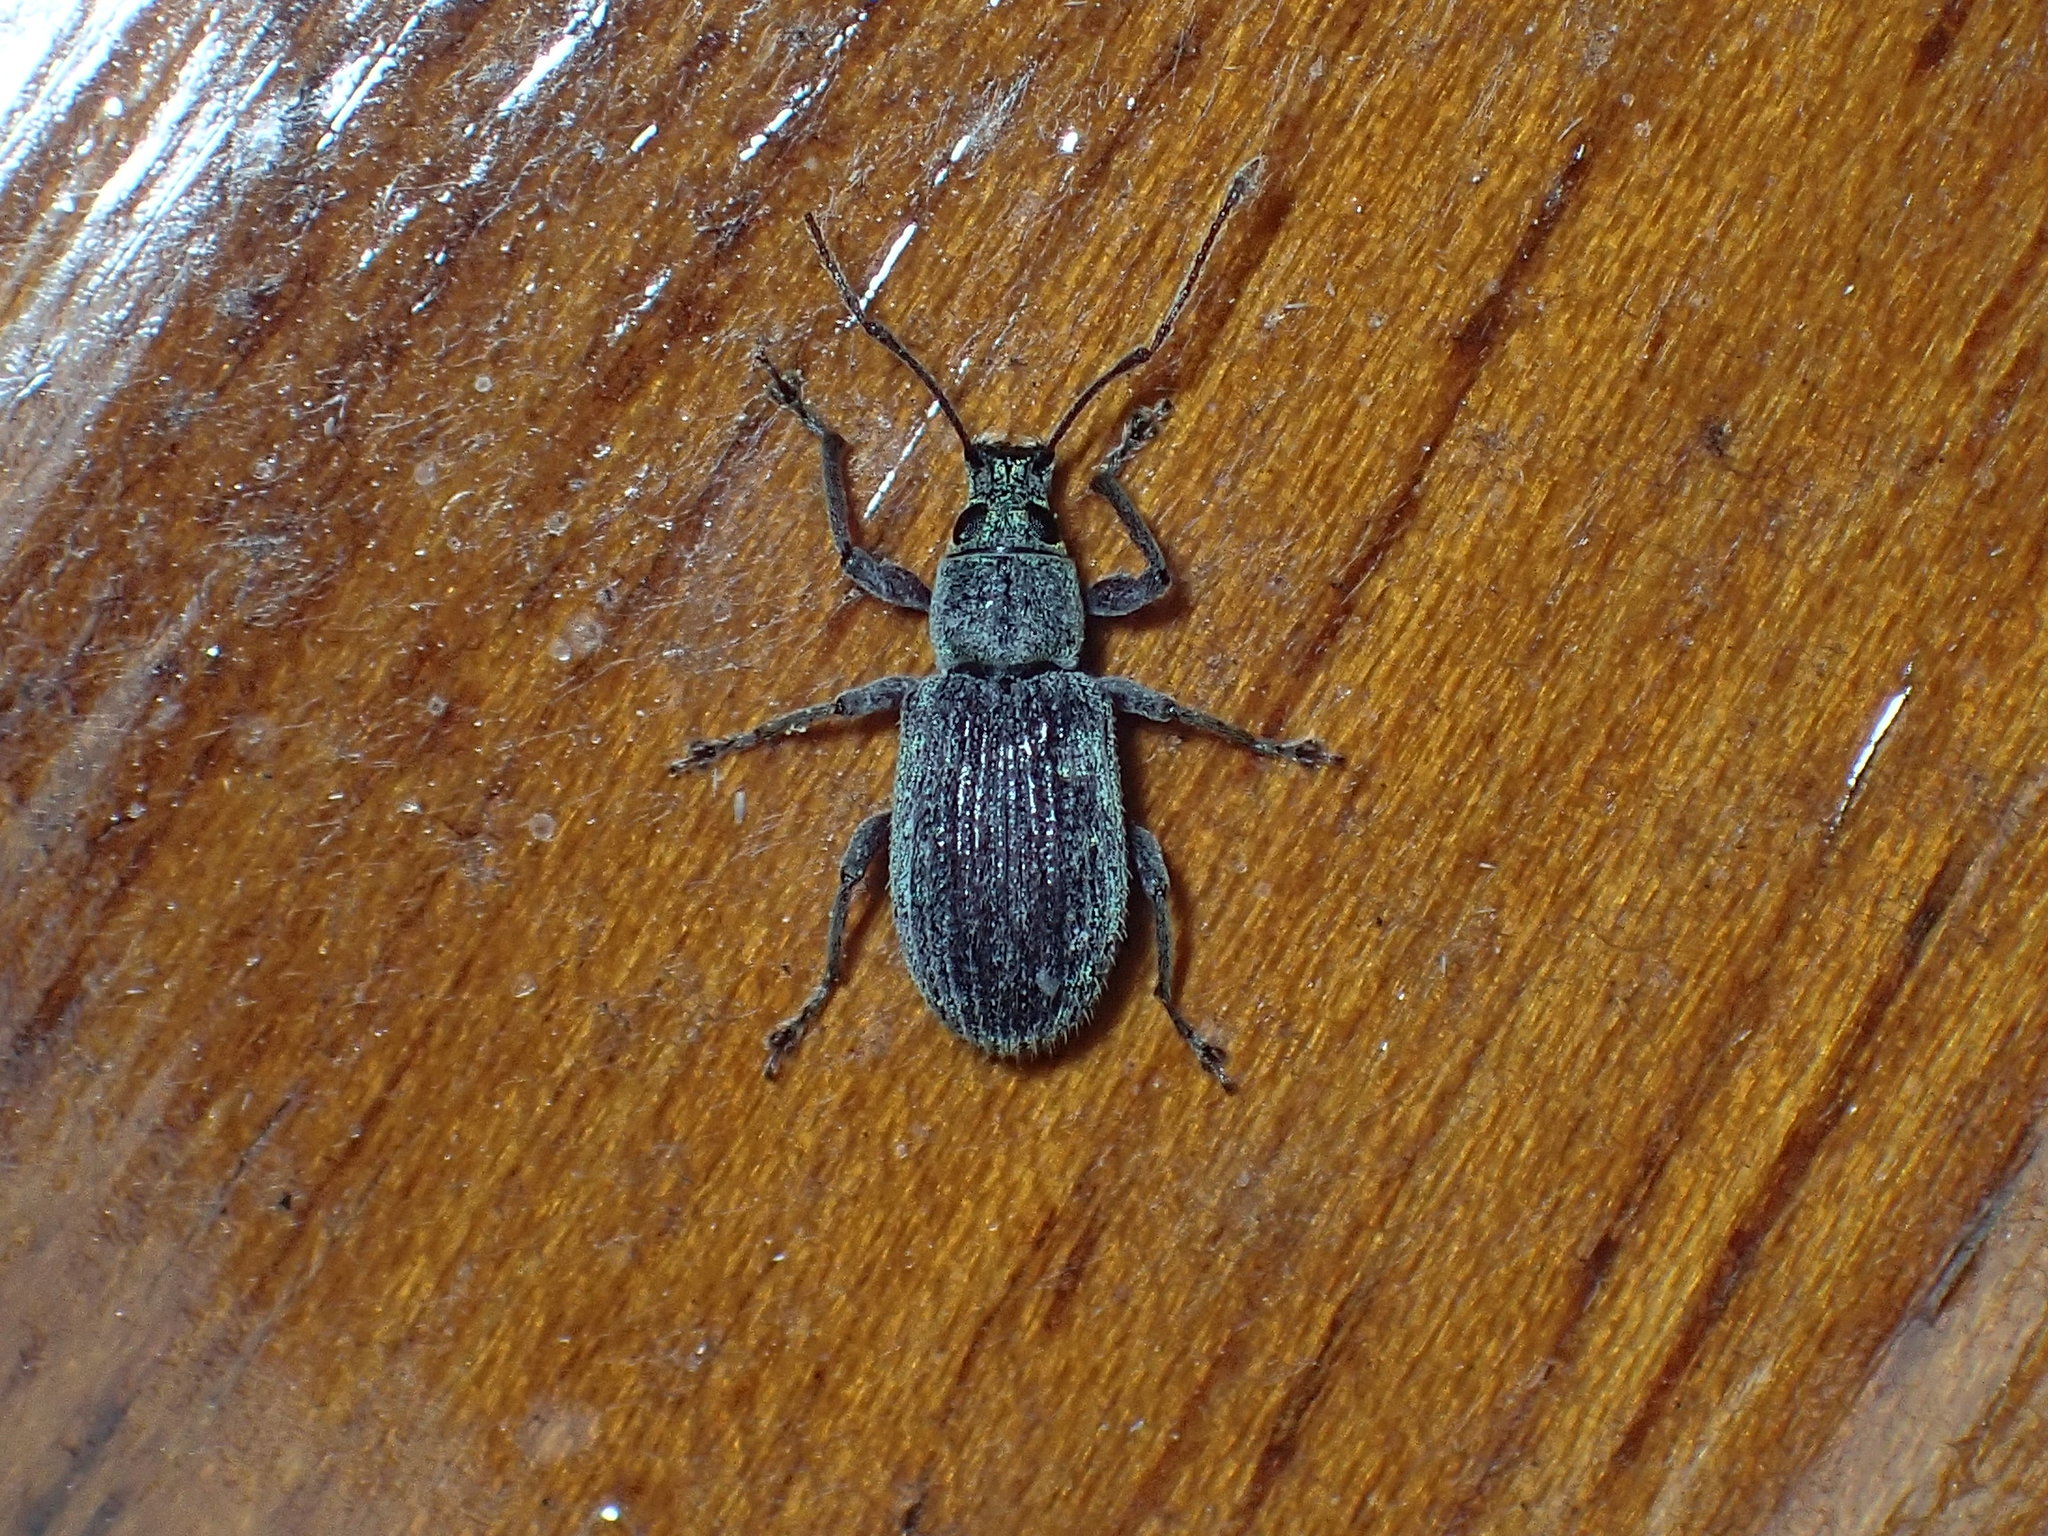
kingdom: Animalia
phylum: Arthropoda
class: Insecta
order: Coleoptera
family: Curculionidae
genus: Cyrtepistomus
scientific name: Cyrtepistomus castaneus
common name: Weevil
